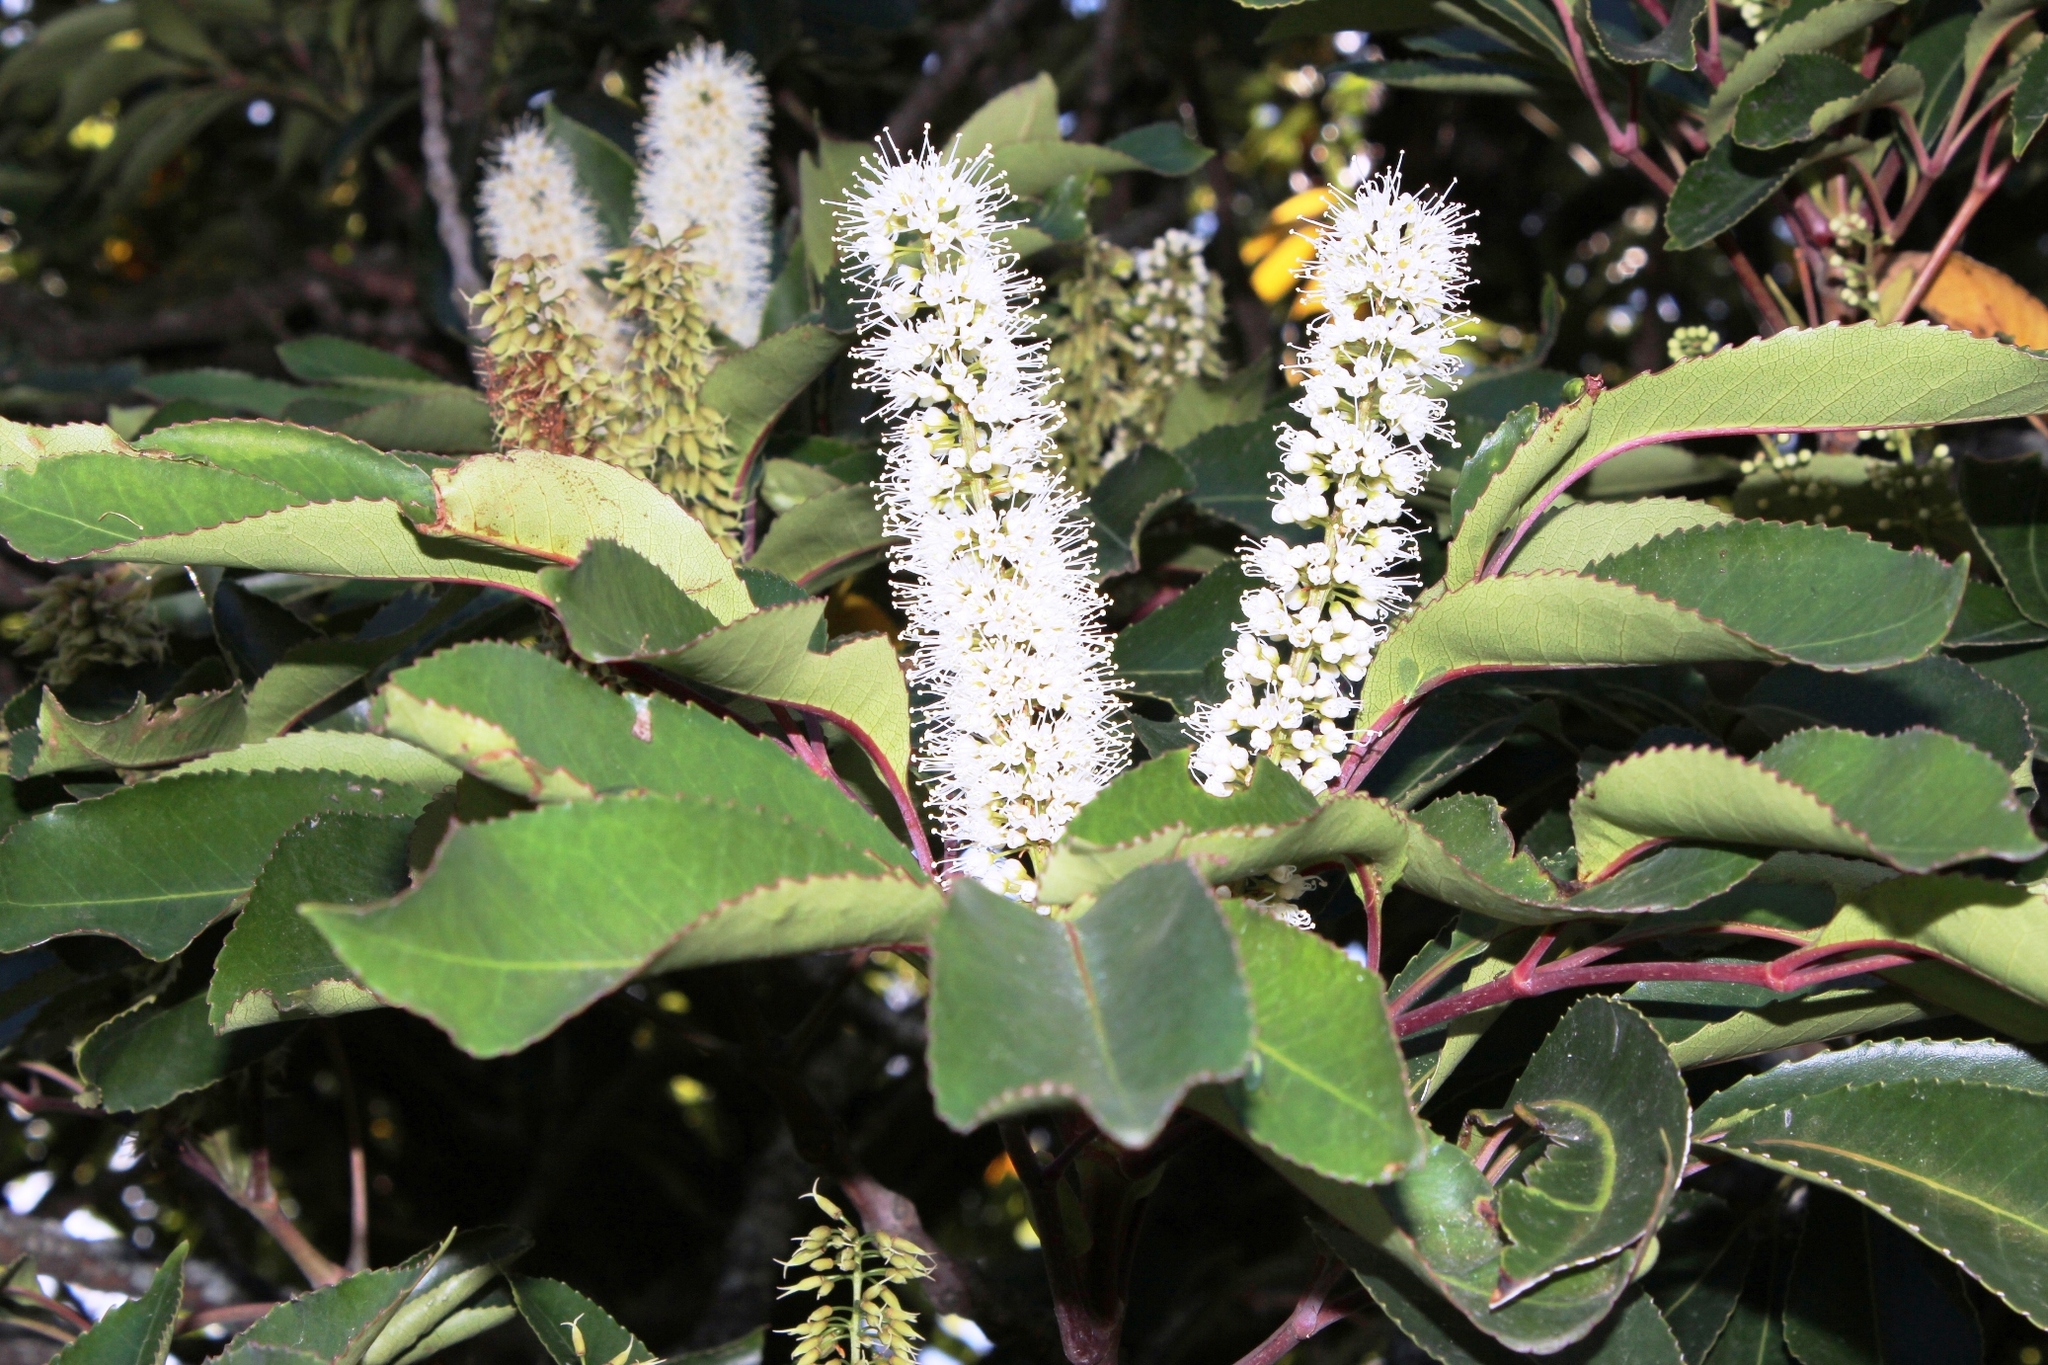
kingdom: Plantae
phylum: Tracheophyta
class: Magnoliopsida
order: Oxalidales
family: Cunoniaceae
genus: Cunonia
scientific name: Cunonia capensis
